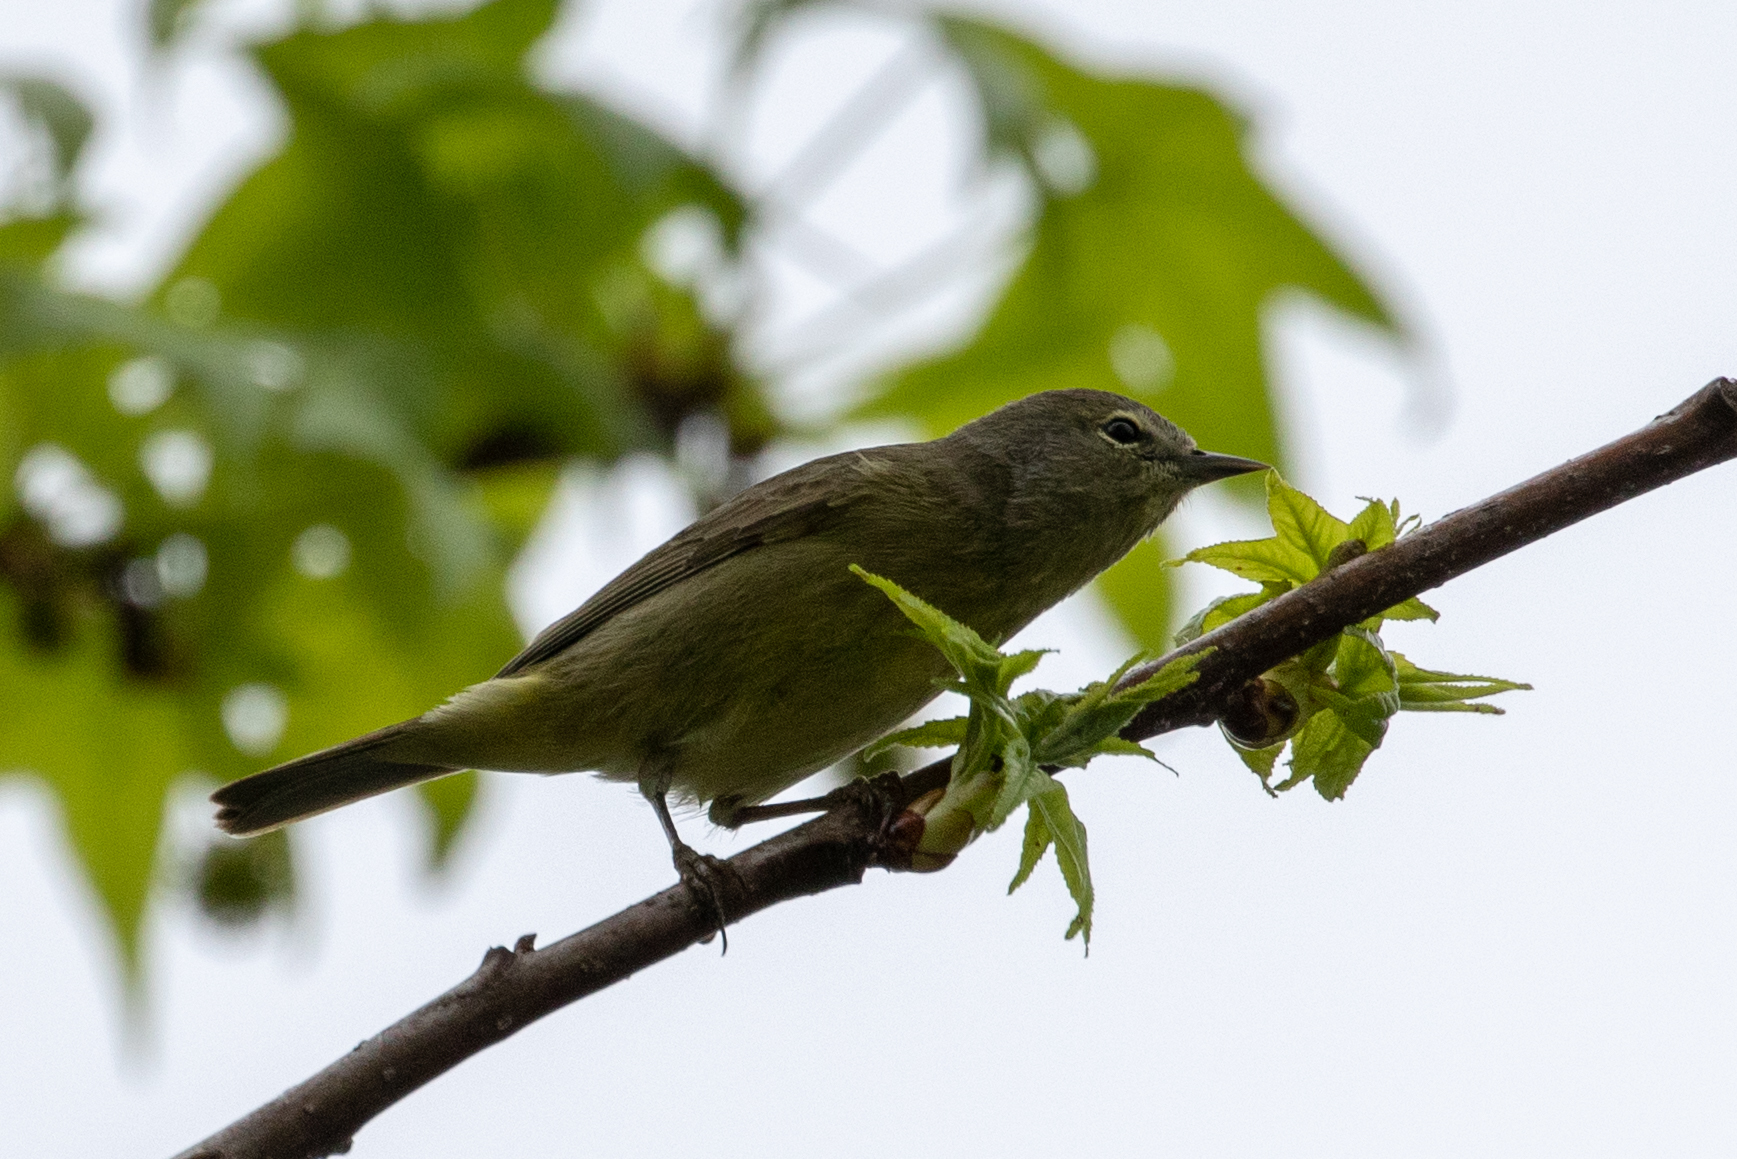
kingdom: Animalia
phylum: Chordata
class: Aves
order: Passeriformes
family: Parulidae
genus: Leiothlypis
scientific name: Leiothlypis celata
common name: Orange-crowned warbler
